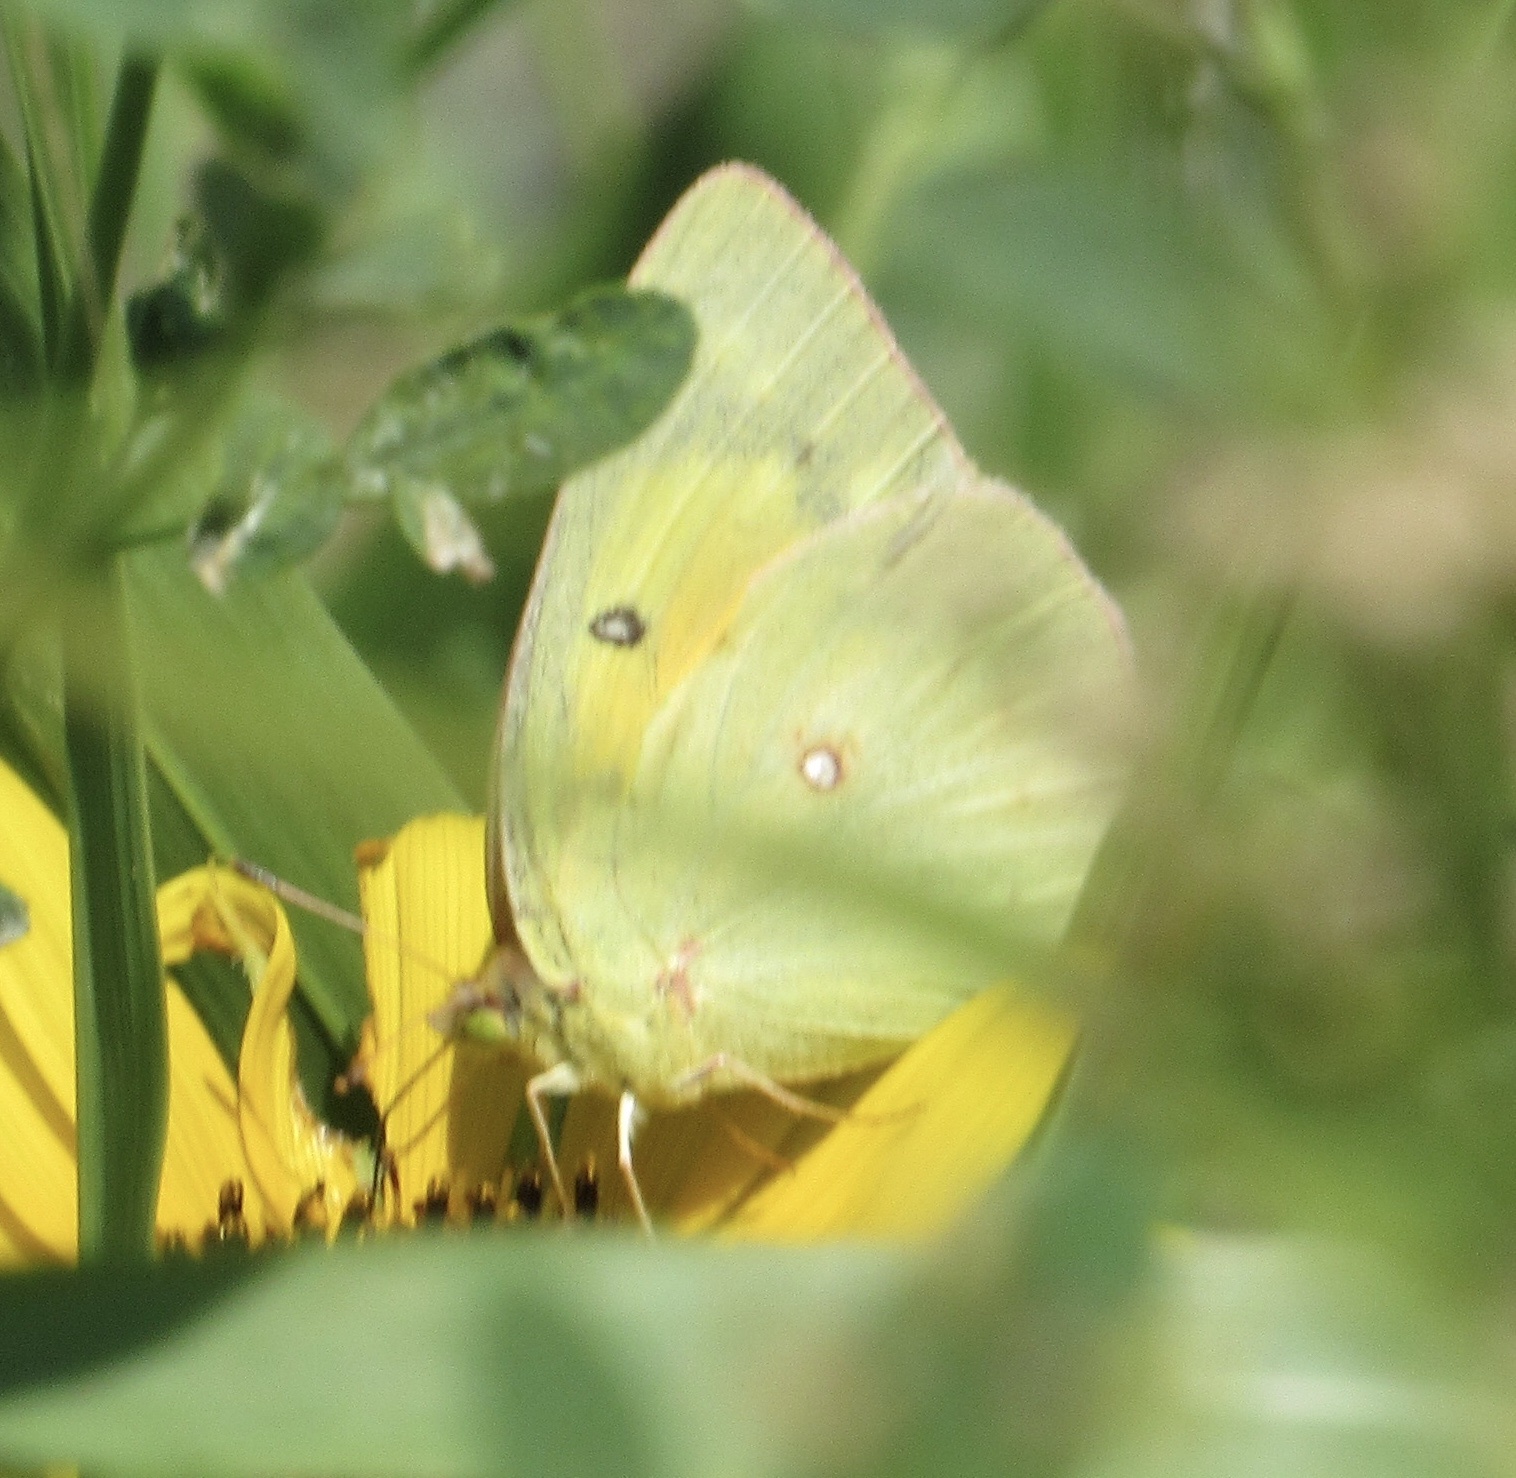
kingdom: Animalia
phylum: Arthropoda
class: Insecta
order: Lepidoptera
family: Pieridae
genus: Colias
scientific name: Colias eurytheme
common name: Alfalfa butterfly
